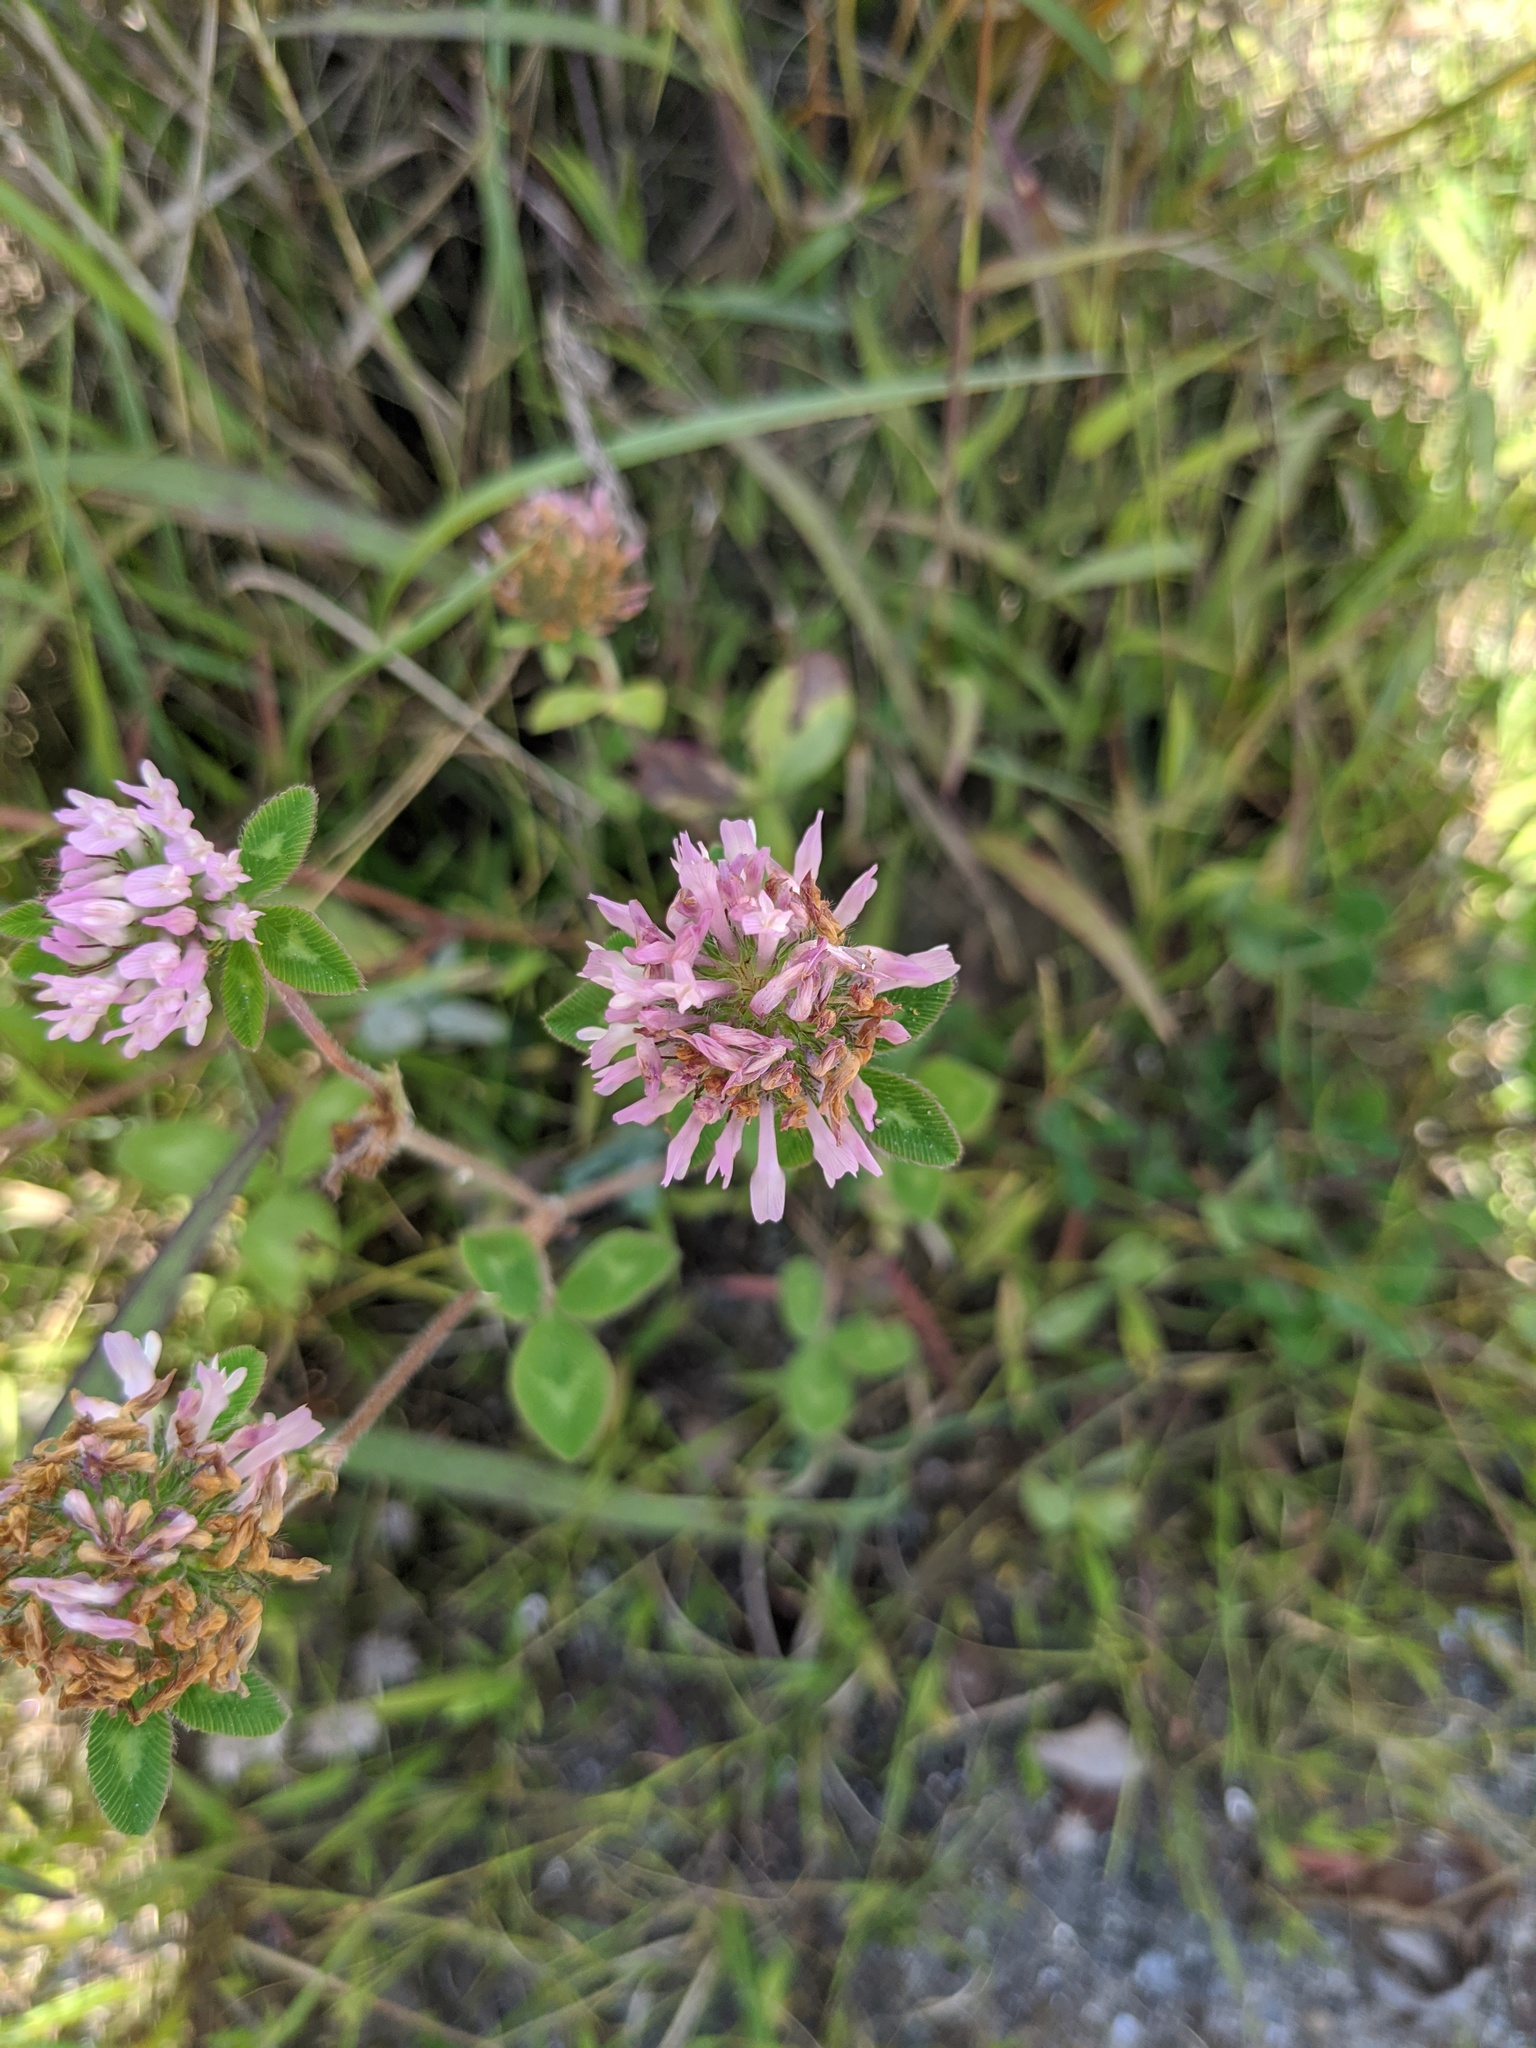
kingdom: Plantae
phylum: Tracheophyta
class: Magnoliopsida
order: Fabales
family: Fabaceae
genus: Trifolium
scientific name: Trifolium pratense
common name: Red clover
